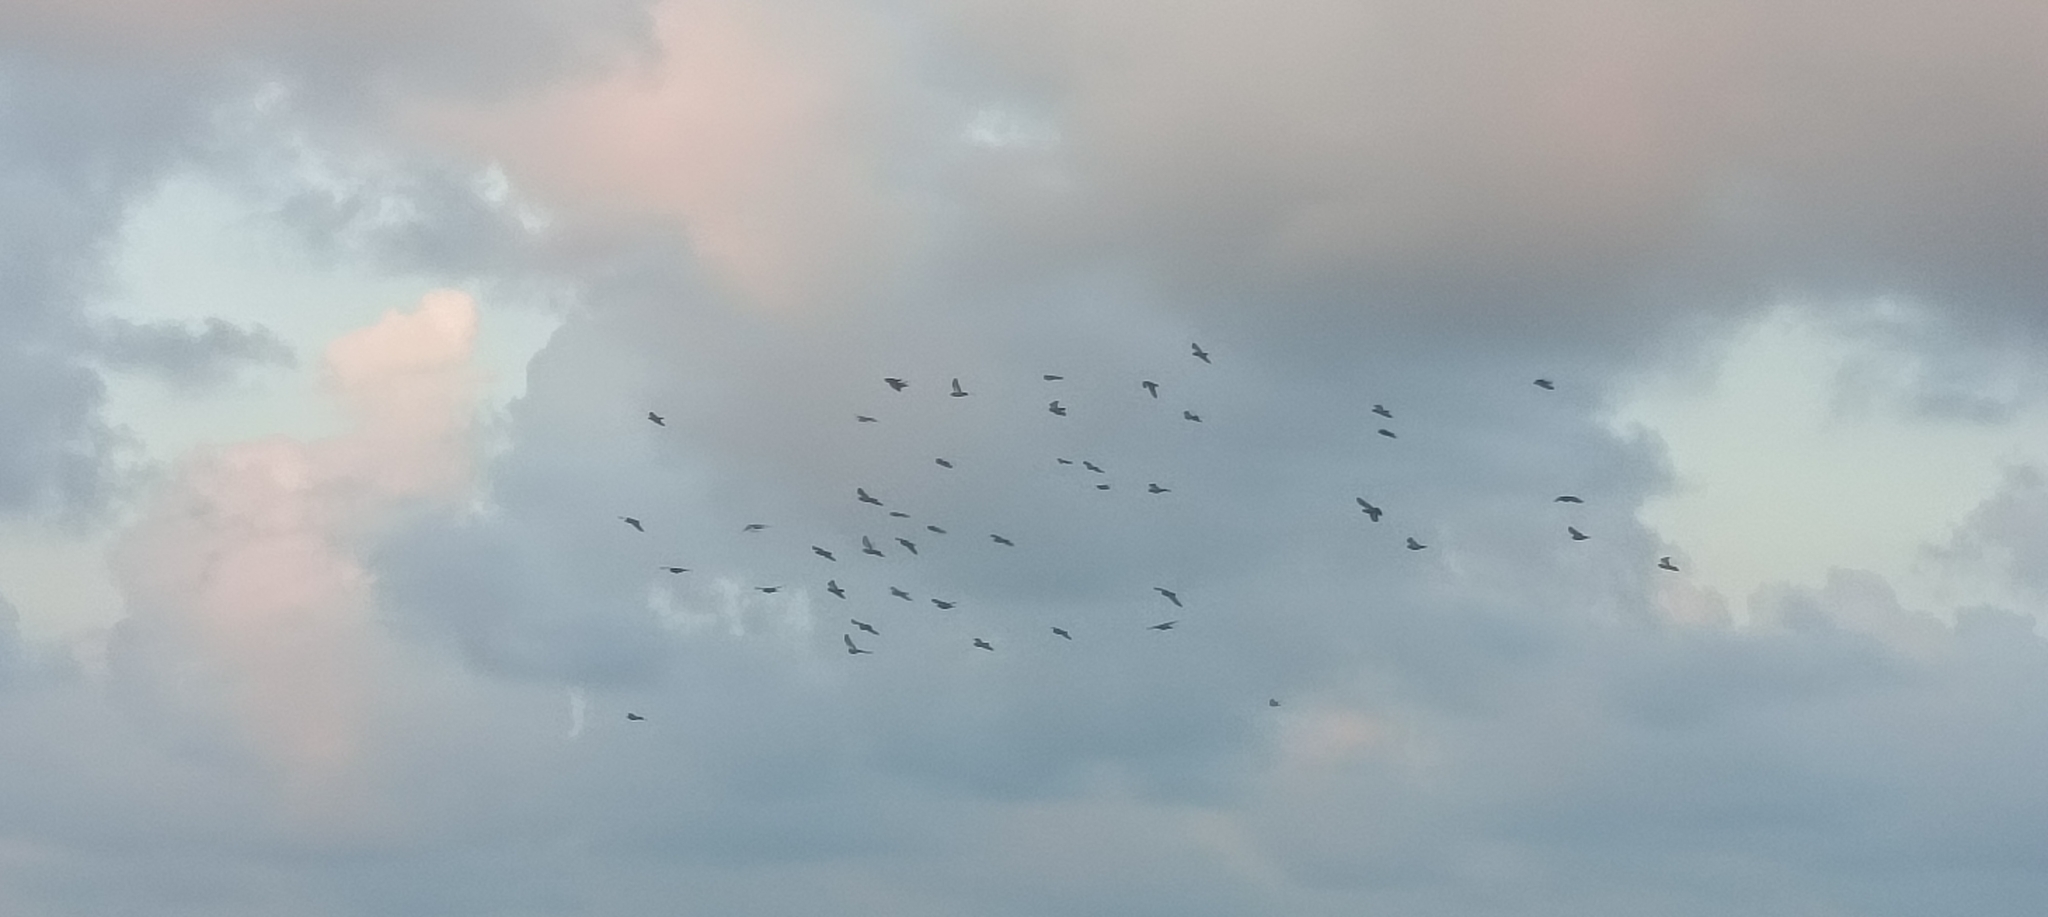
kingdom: Animalia
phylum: Chordata
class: Aves
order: Columbiformes
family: Columbidae
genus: Columba
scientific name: Columba livia
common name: Rock pigeon
